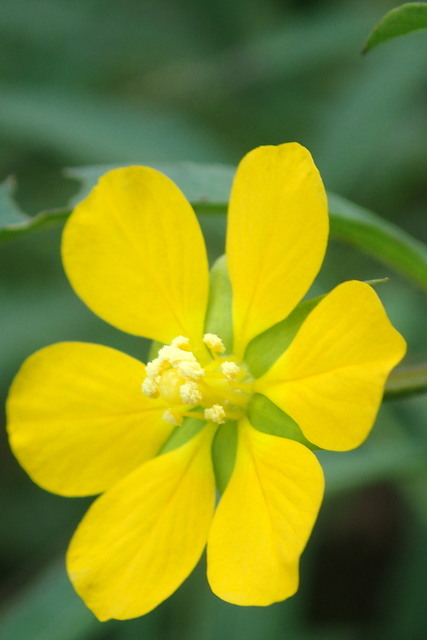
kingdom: Plantae
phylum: Tracheophyta
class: Magnoliopsida
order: Myrtales
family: Onagraceae
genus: Ludwigia
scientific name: Ludwigia leptocarpa
